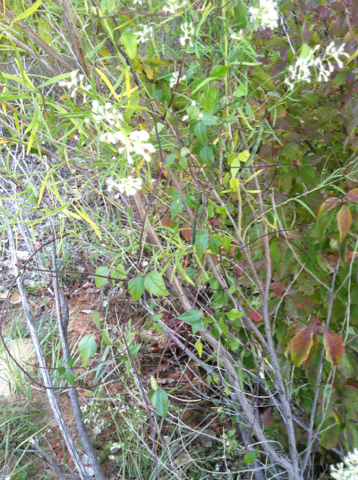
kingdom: Plantae
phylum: Tracheophyta
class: Magnoliopsida
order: Fabales
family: Fabaceae
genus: Strophostyles
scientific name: Strophostyles helvola
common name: Trailing wild bean
